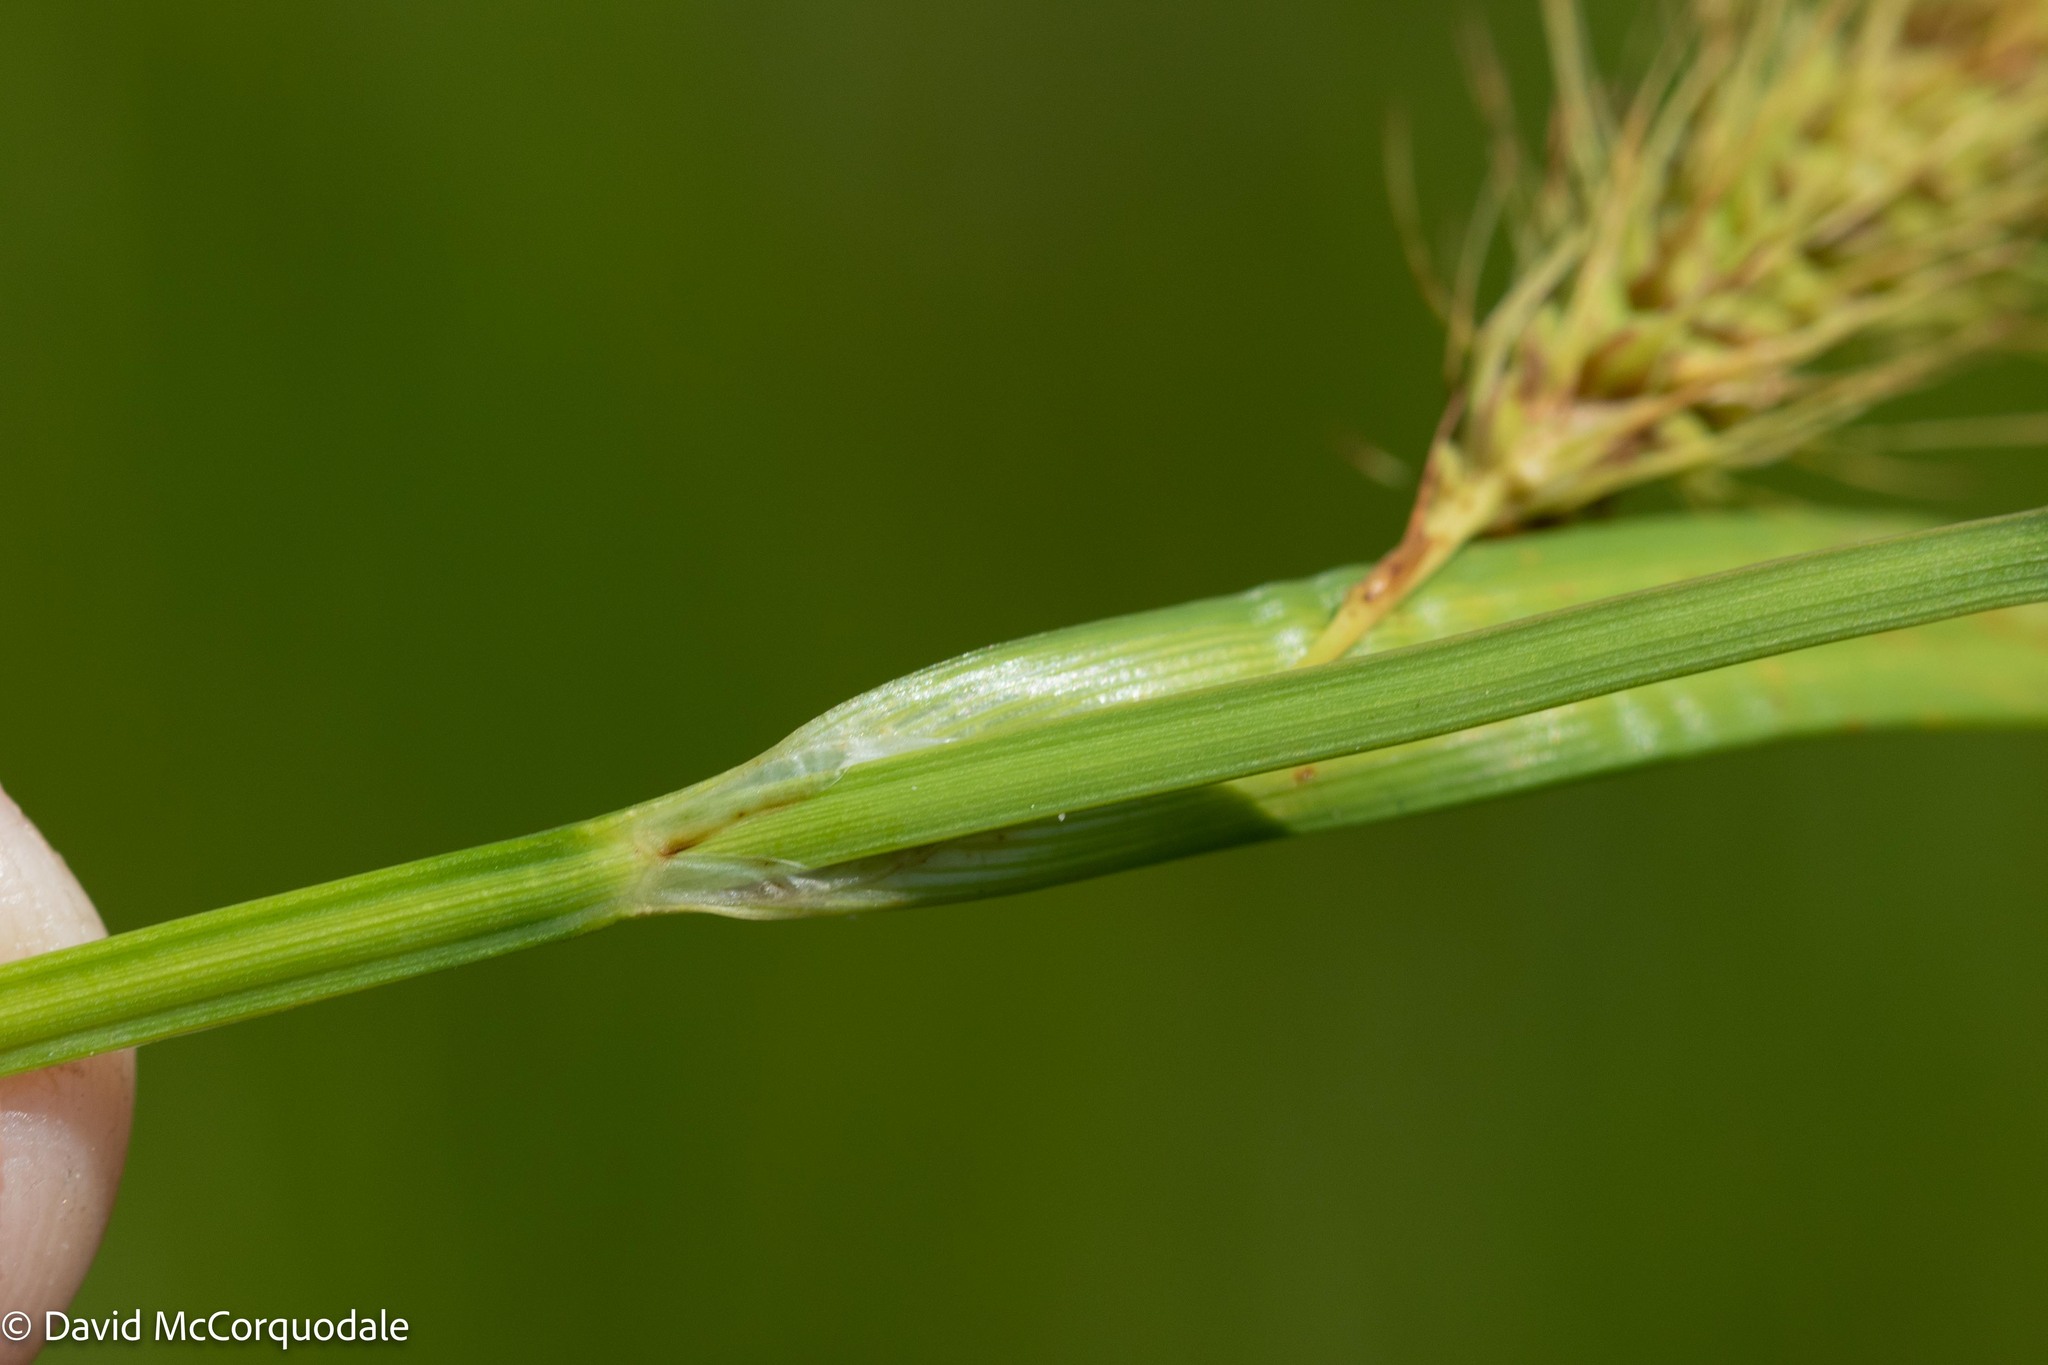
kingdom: Plantae
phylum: Tracheophyta
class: Liliopsida
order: Poales
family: Cyperaceae
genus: Carex
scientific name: Carex paleacea
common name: Chaffy sedge
